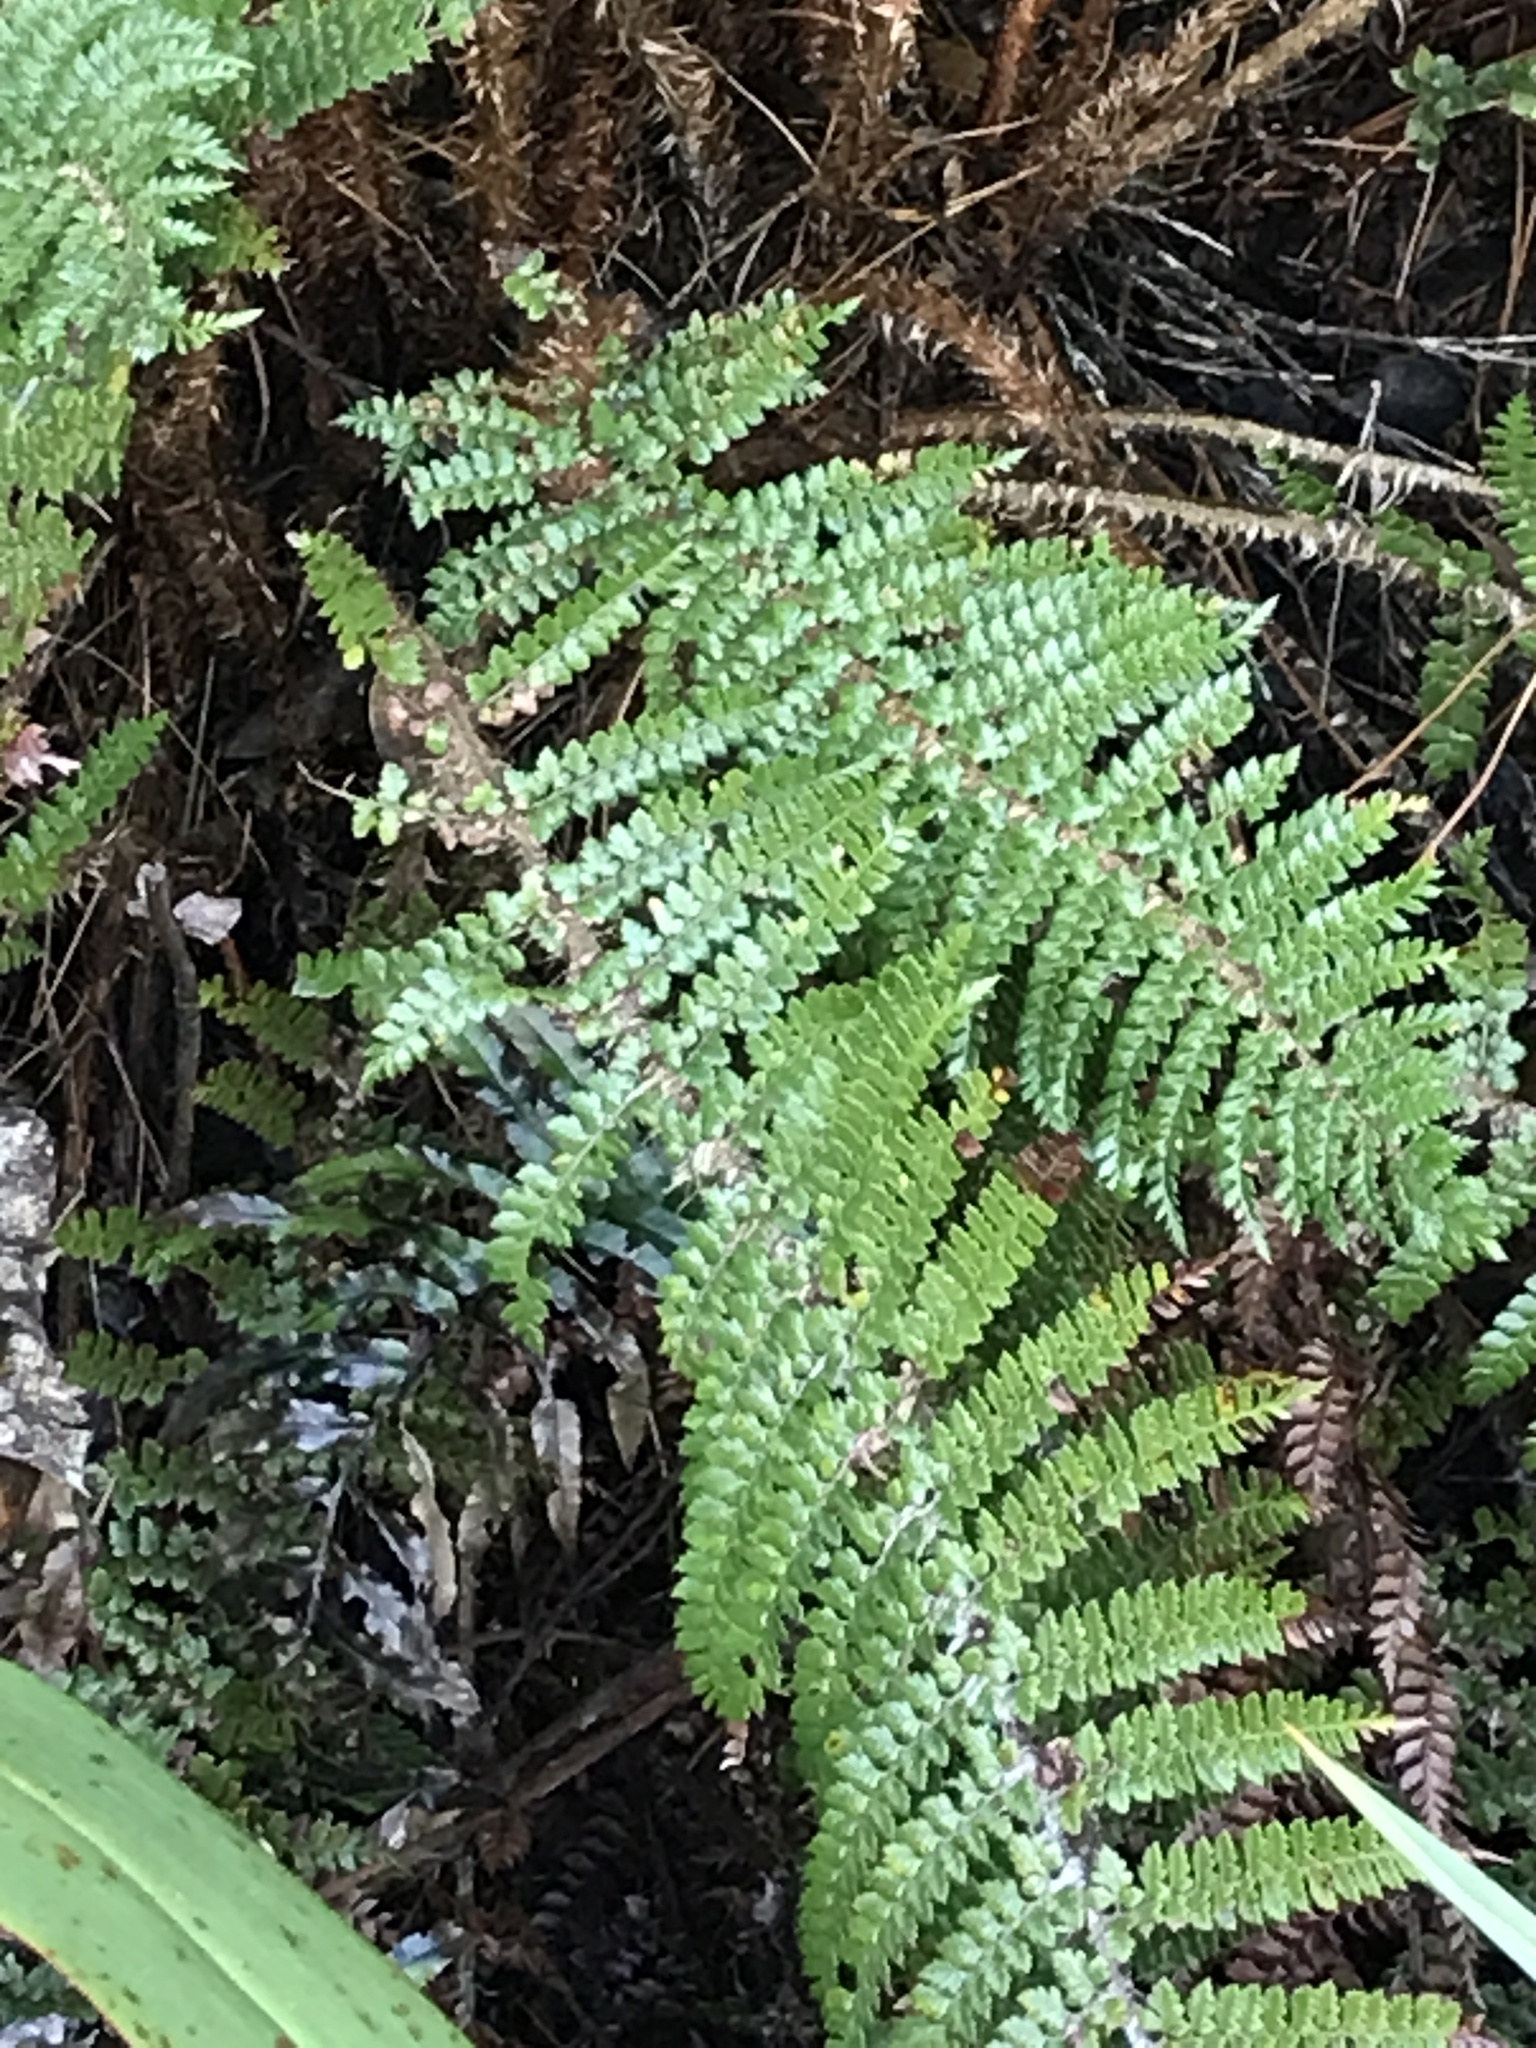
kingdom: Plantae
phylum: Tracheophyta
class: Polypodiopsida
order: Polypodiales
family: Dryopteridaceae
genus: Polystichum
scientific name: Polystichum vestitum
